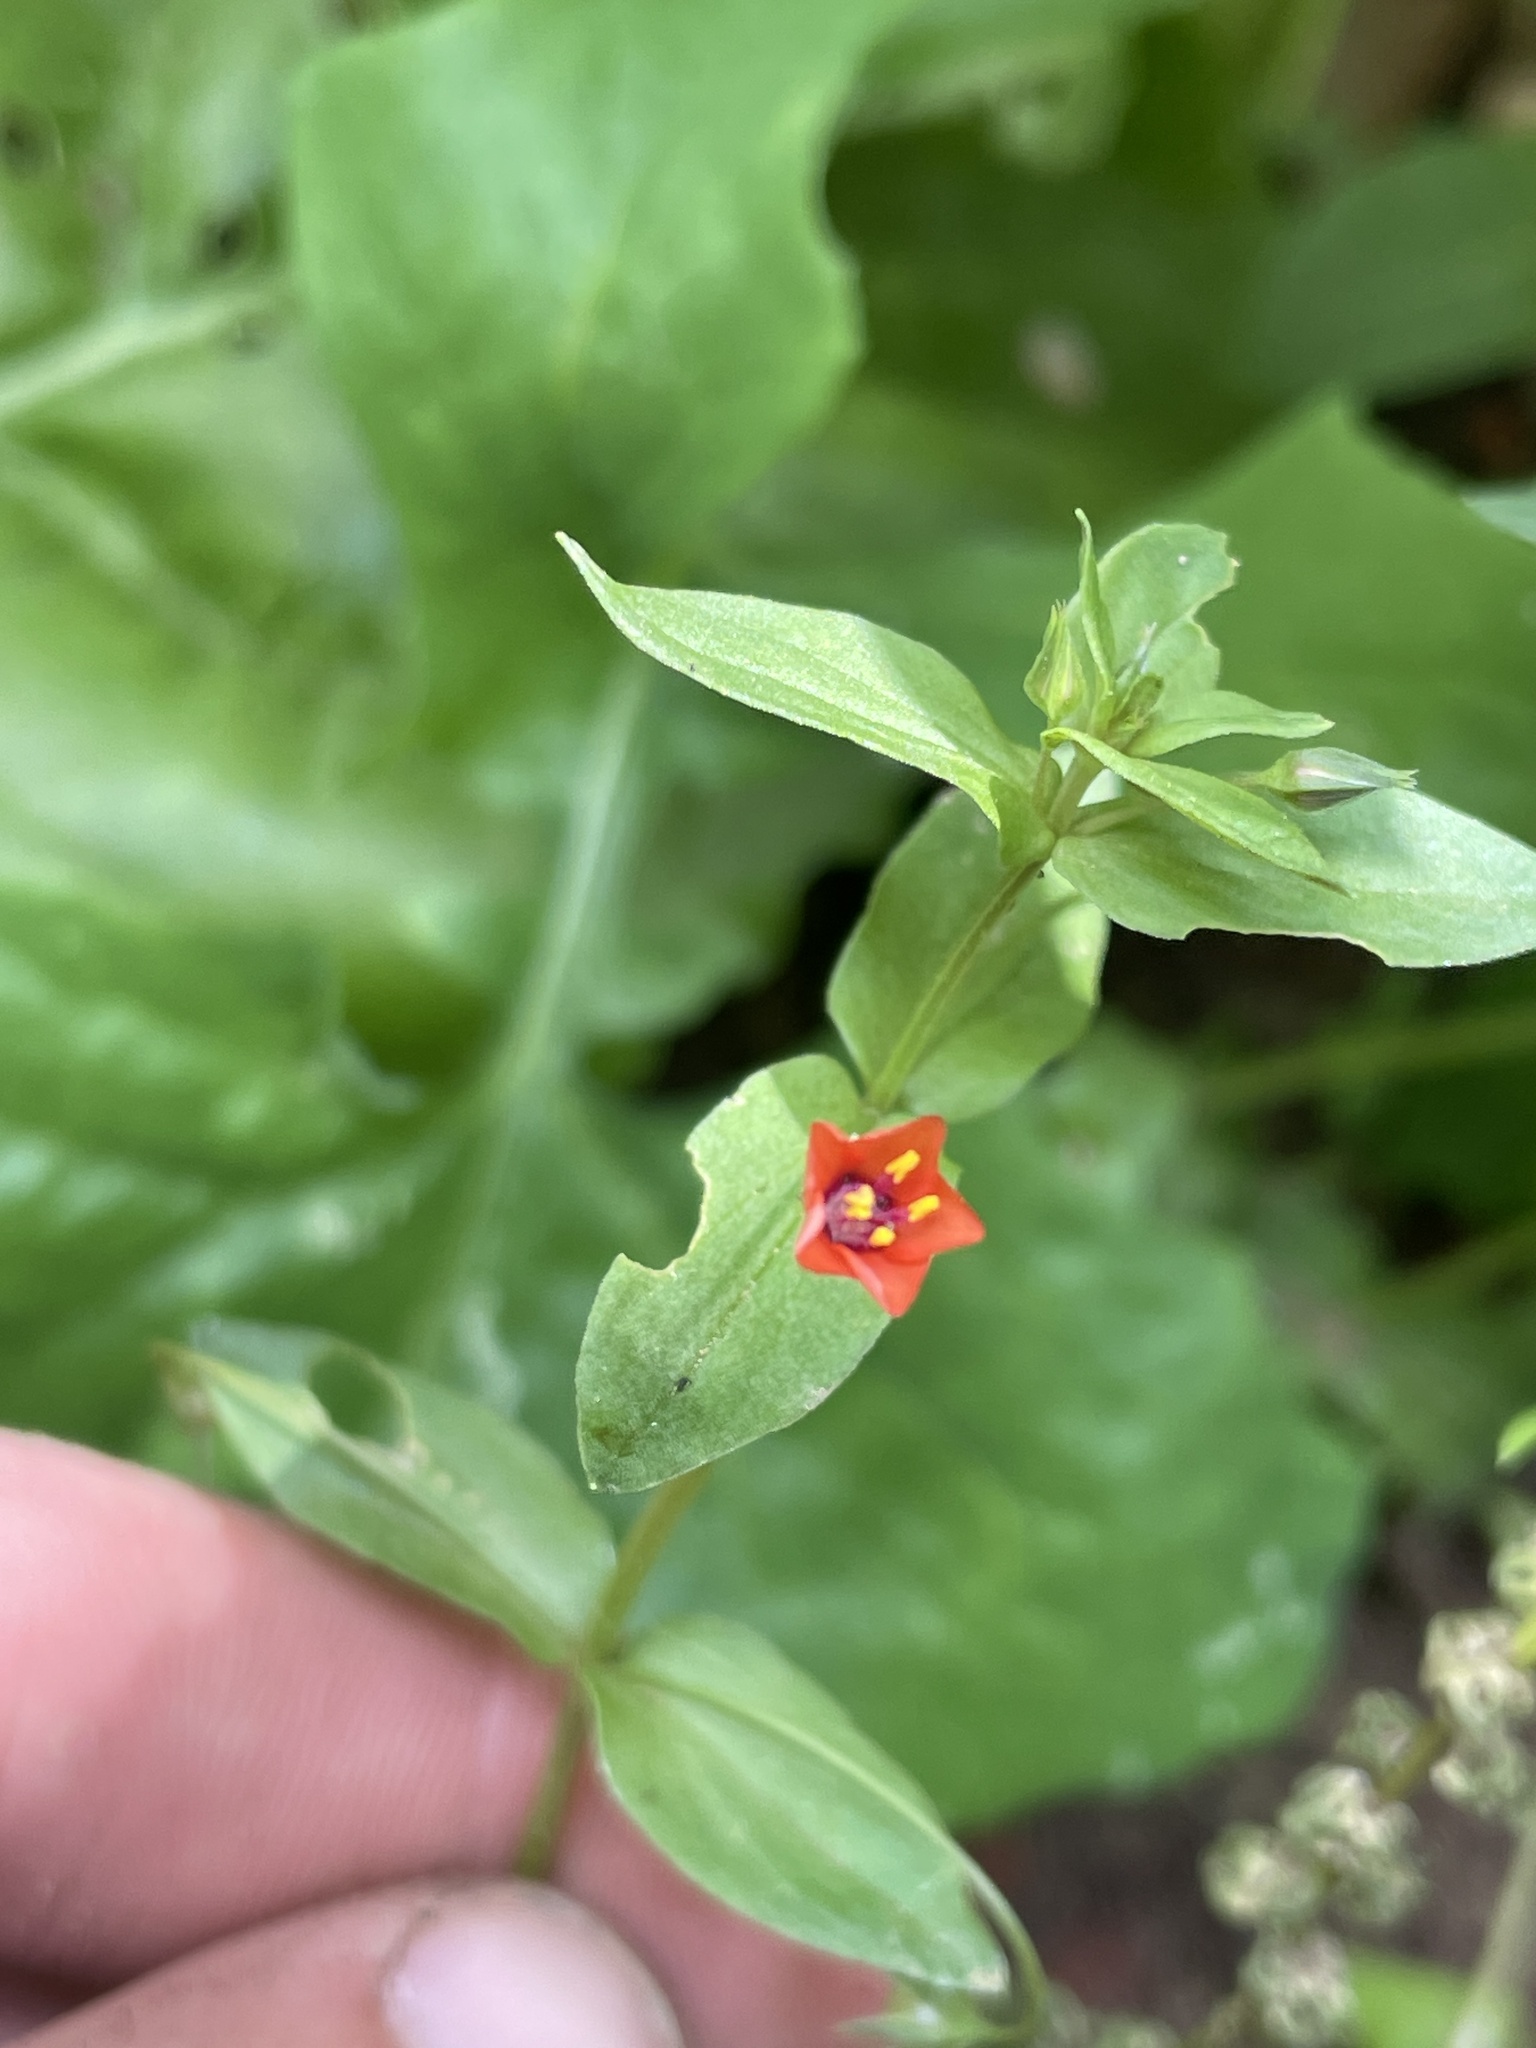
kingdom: Plantae
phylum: Tracheophyta
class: Magnoliopsida
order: Ericales
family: Primulaceae
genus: Lysimachia
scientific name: Lysimachia arvensis
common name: Scarlet pimpernel
